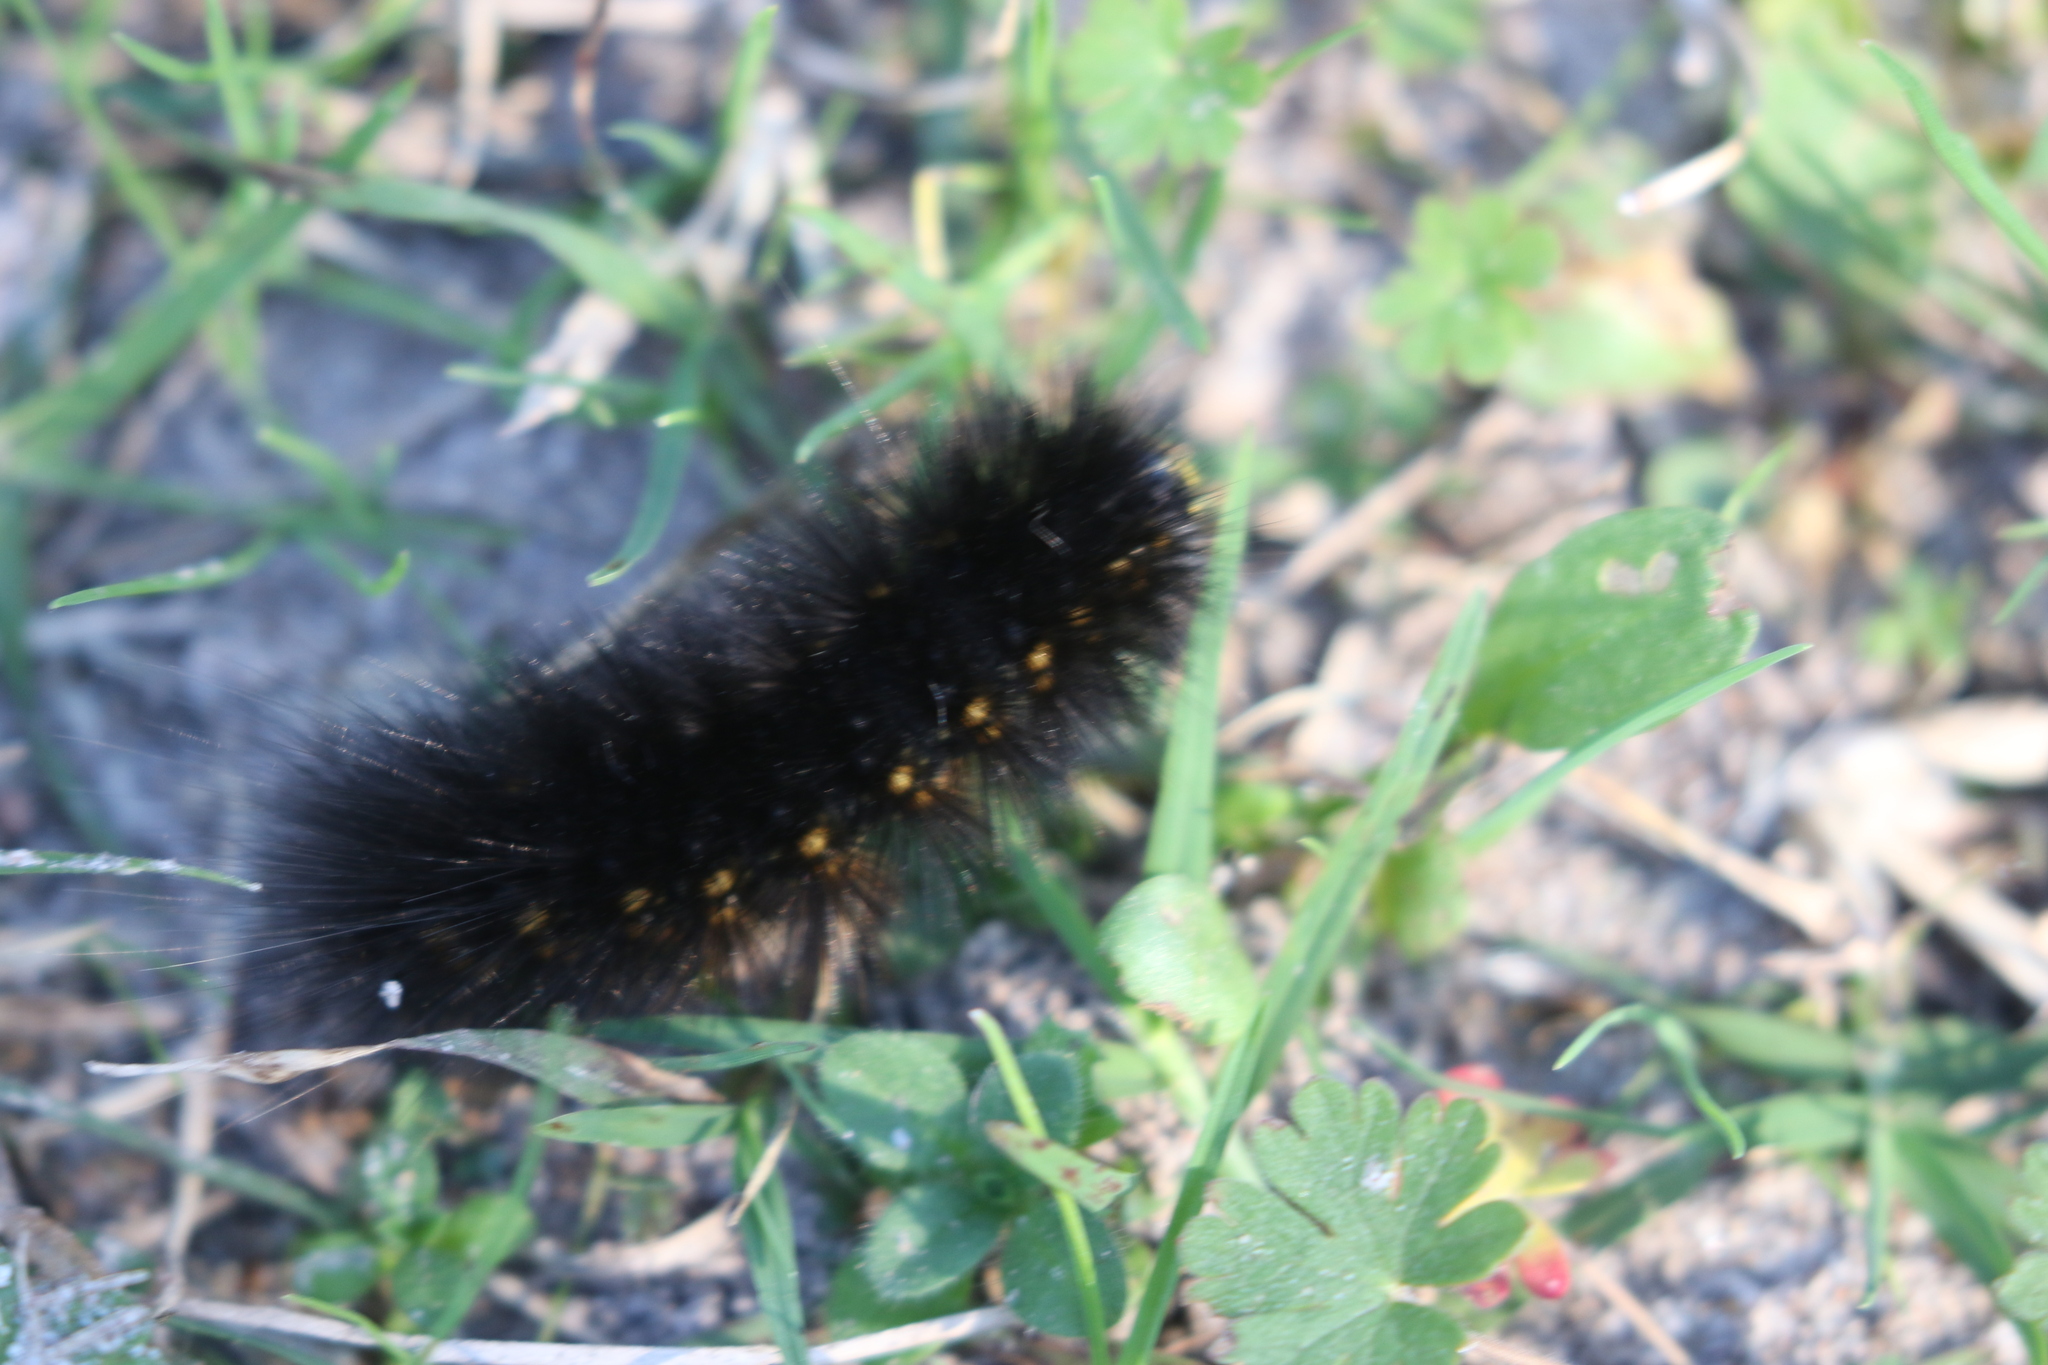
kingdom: Animalia
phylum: Arthropoda
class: Insecta
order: Lepidoptera
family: Erebidae
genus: Estigmene
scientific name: Estigmene acrea
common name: Salt marsh moth
